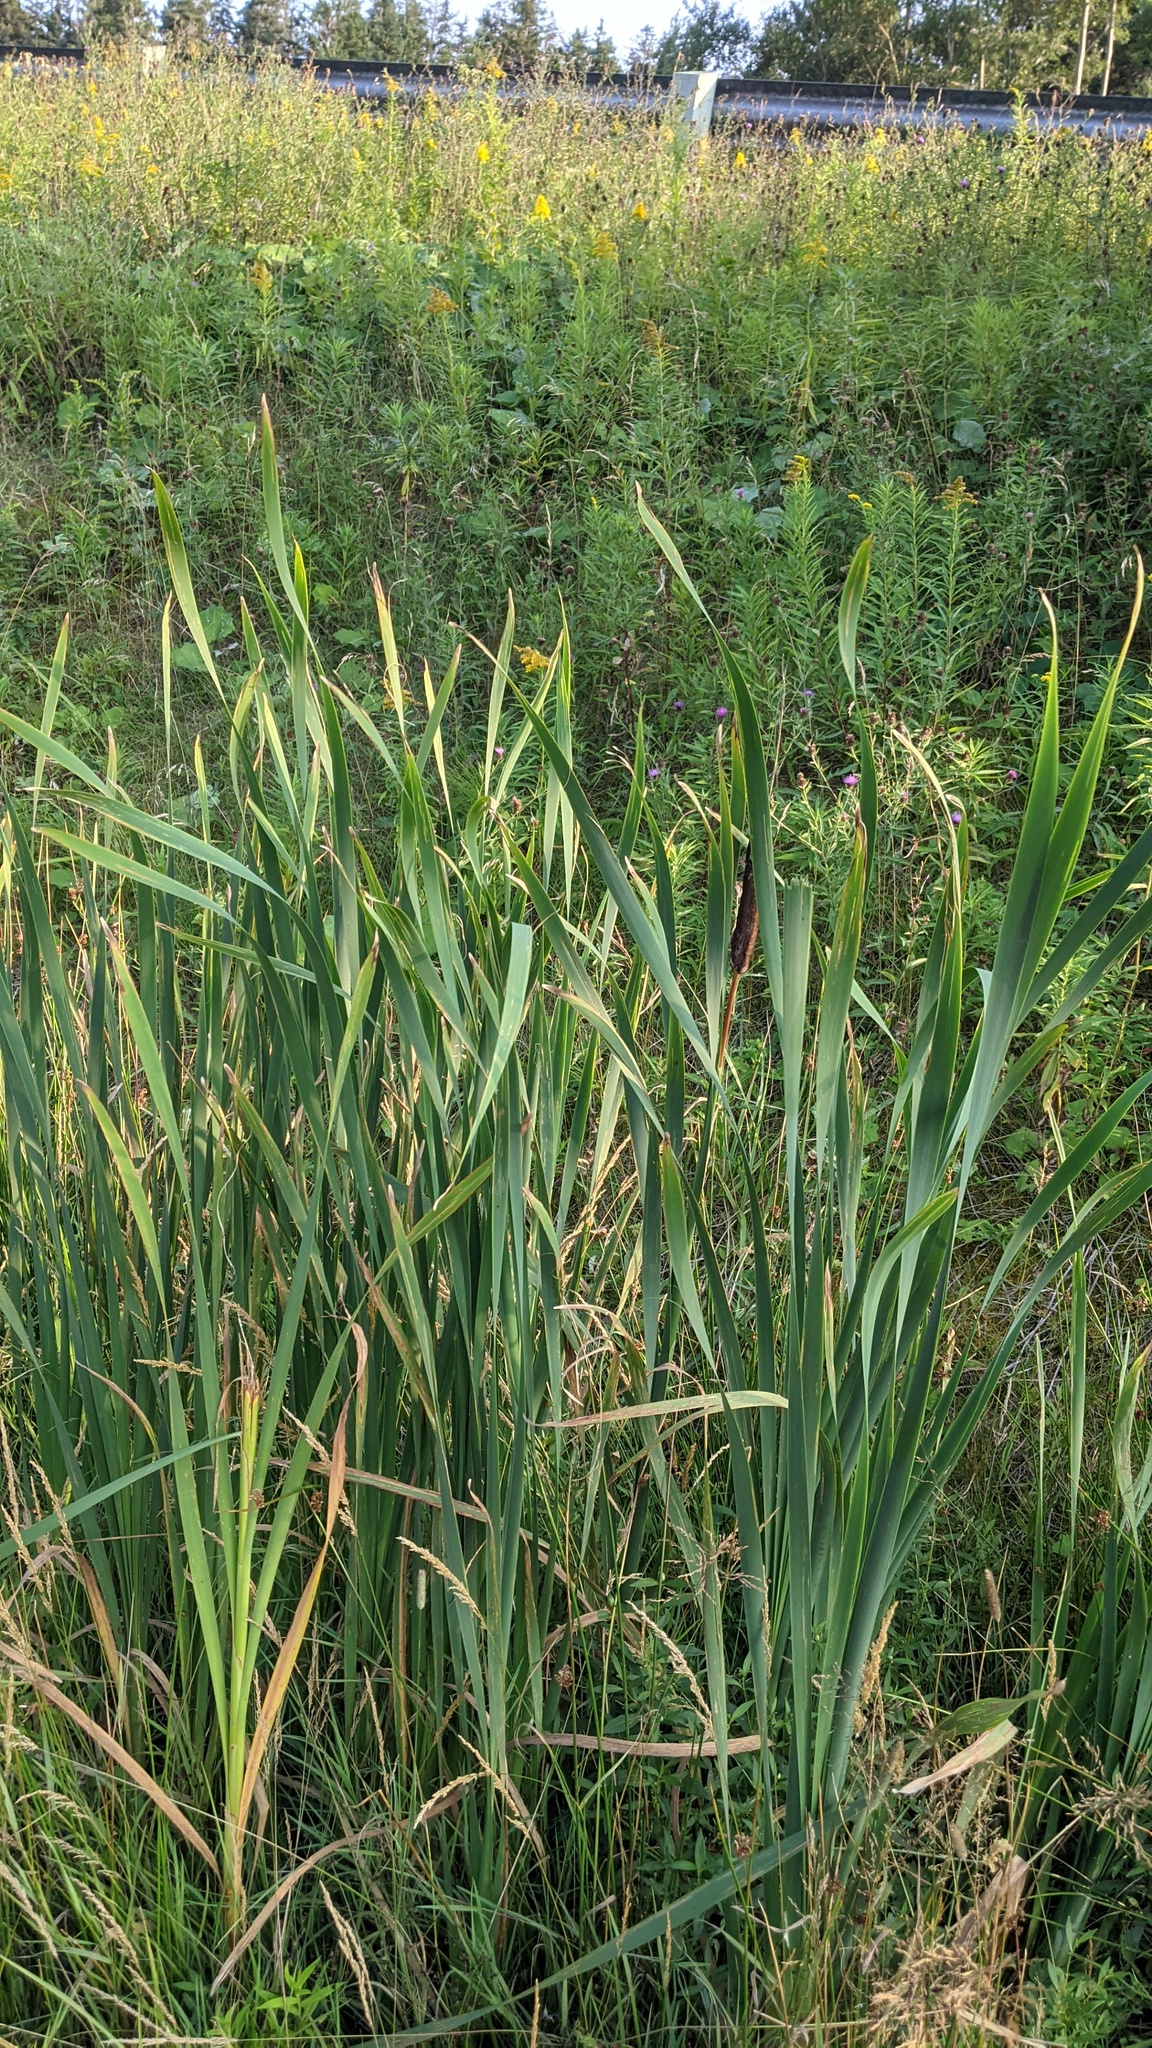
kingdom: Plantae
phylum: Tracheophyta
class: Liliopsida
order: Poales
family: Typhaceae
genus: Typha
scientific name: Typha latifolia
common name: Broadleaf cattail
